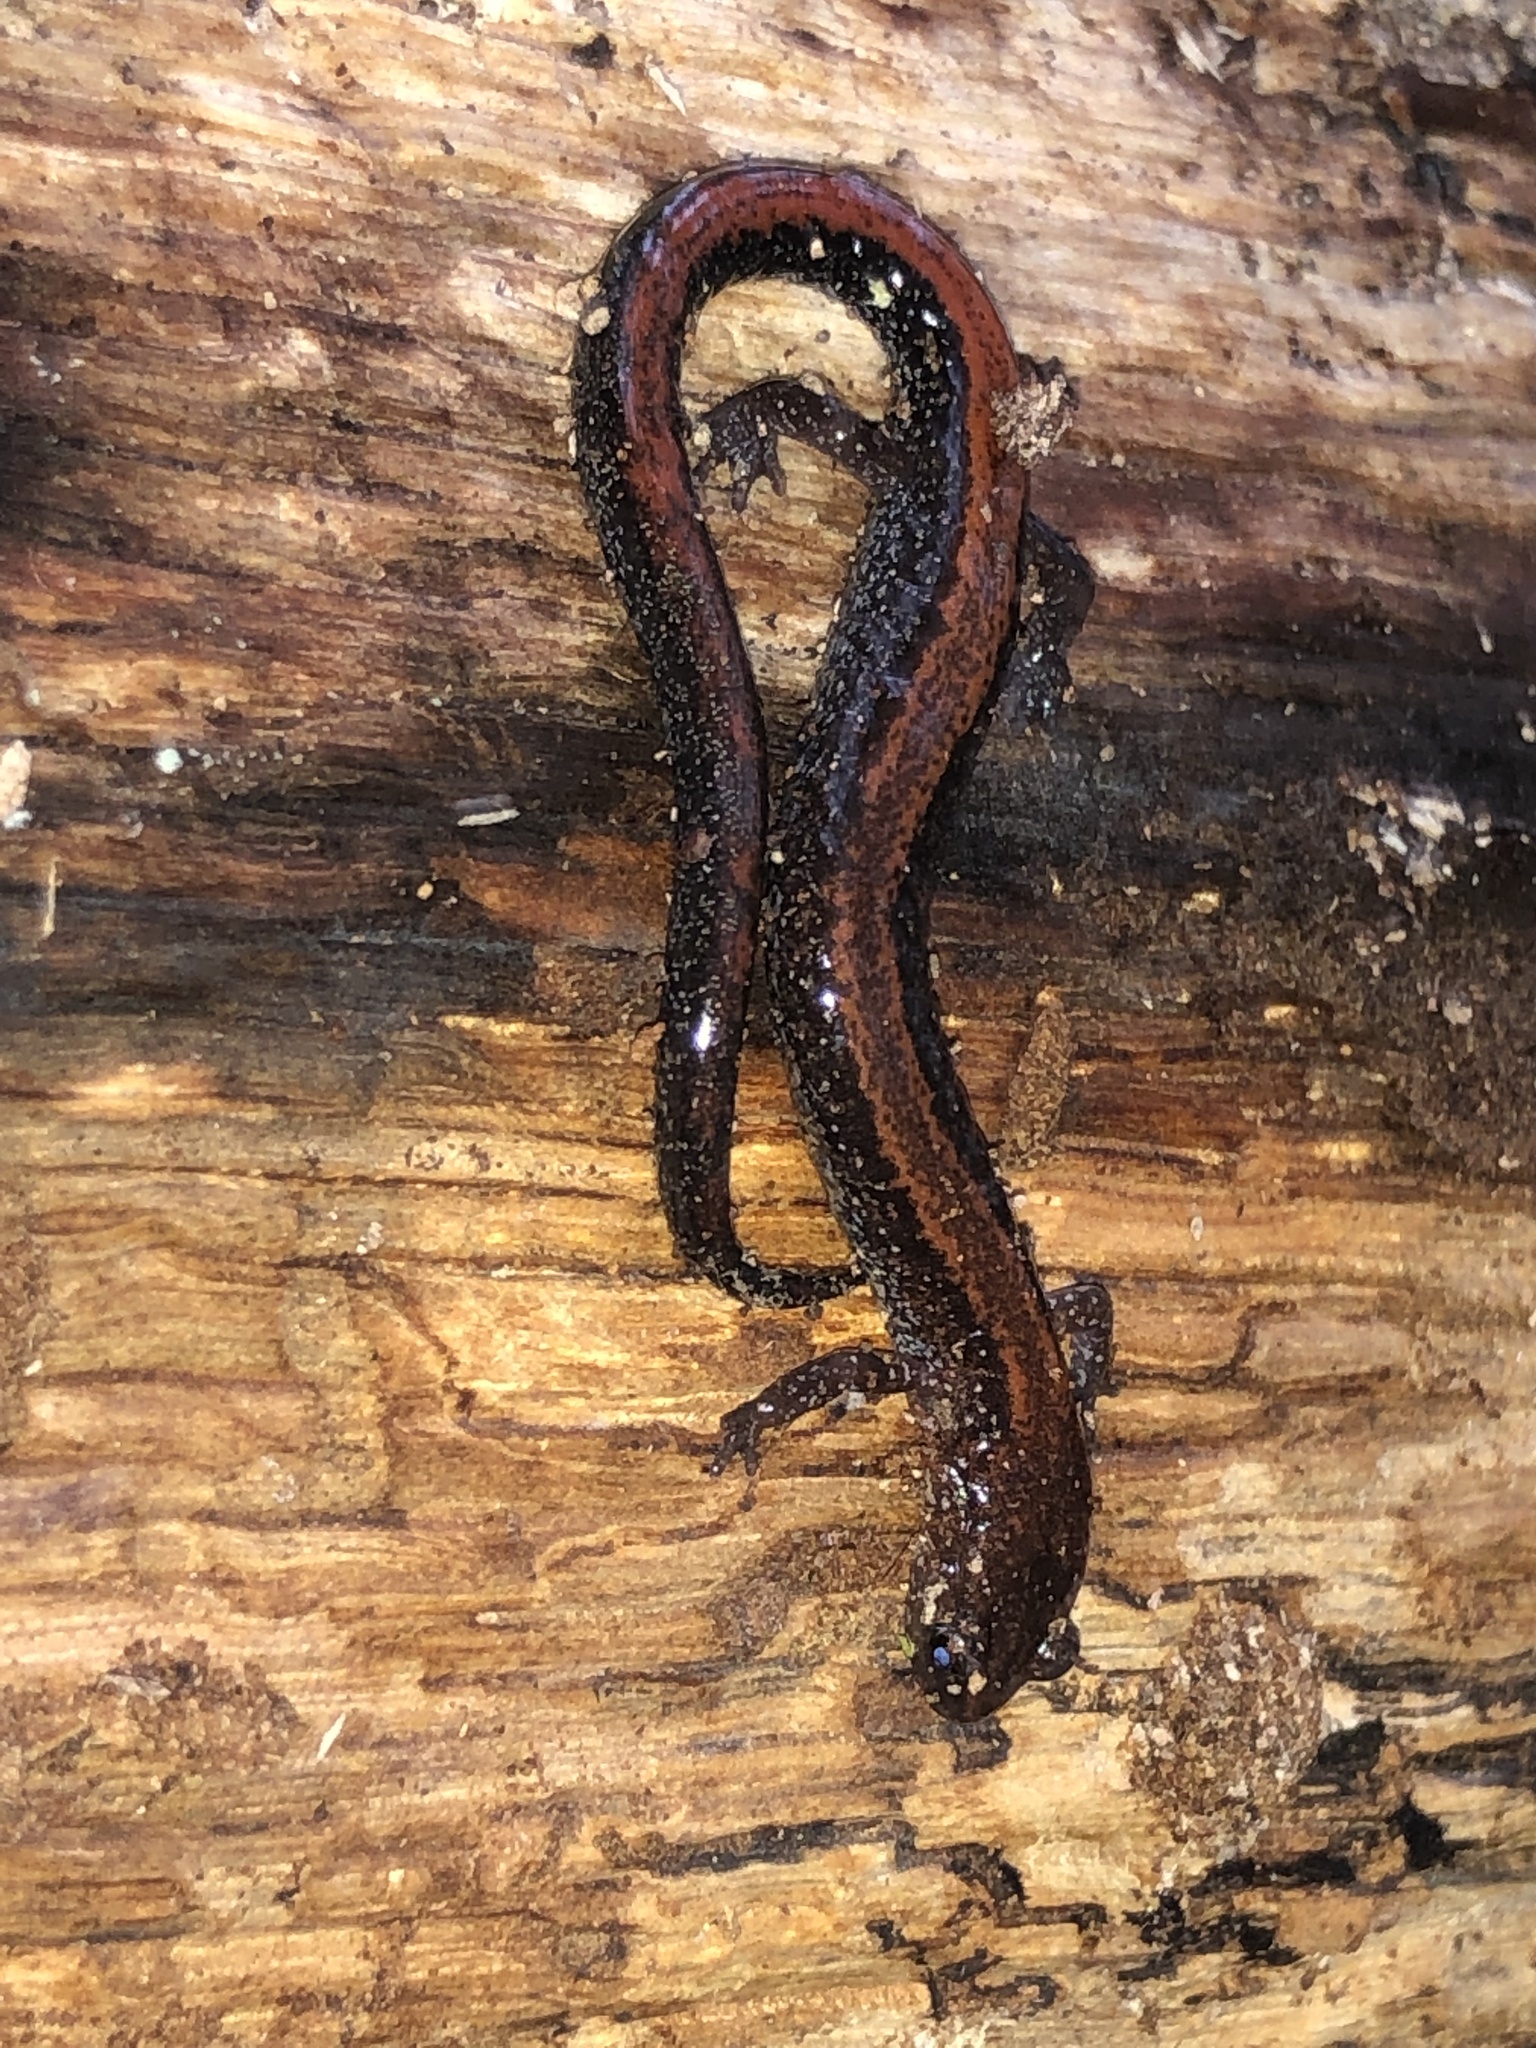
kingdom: Animalia
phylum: Chordata
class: Amphibia
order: Caudata
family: Plethodontidae
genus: Plethodon
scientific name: Plethodon cinereus
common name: Redback salamander
